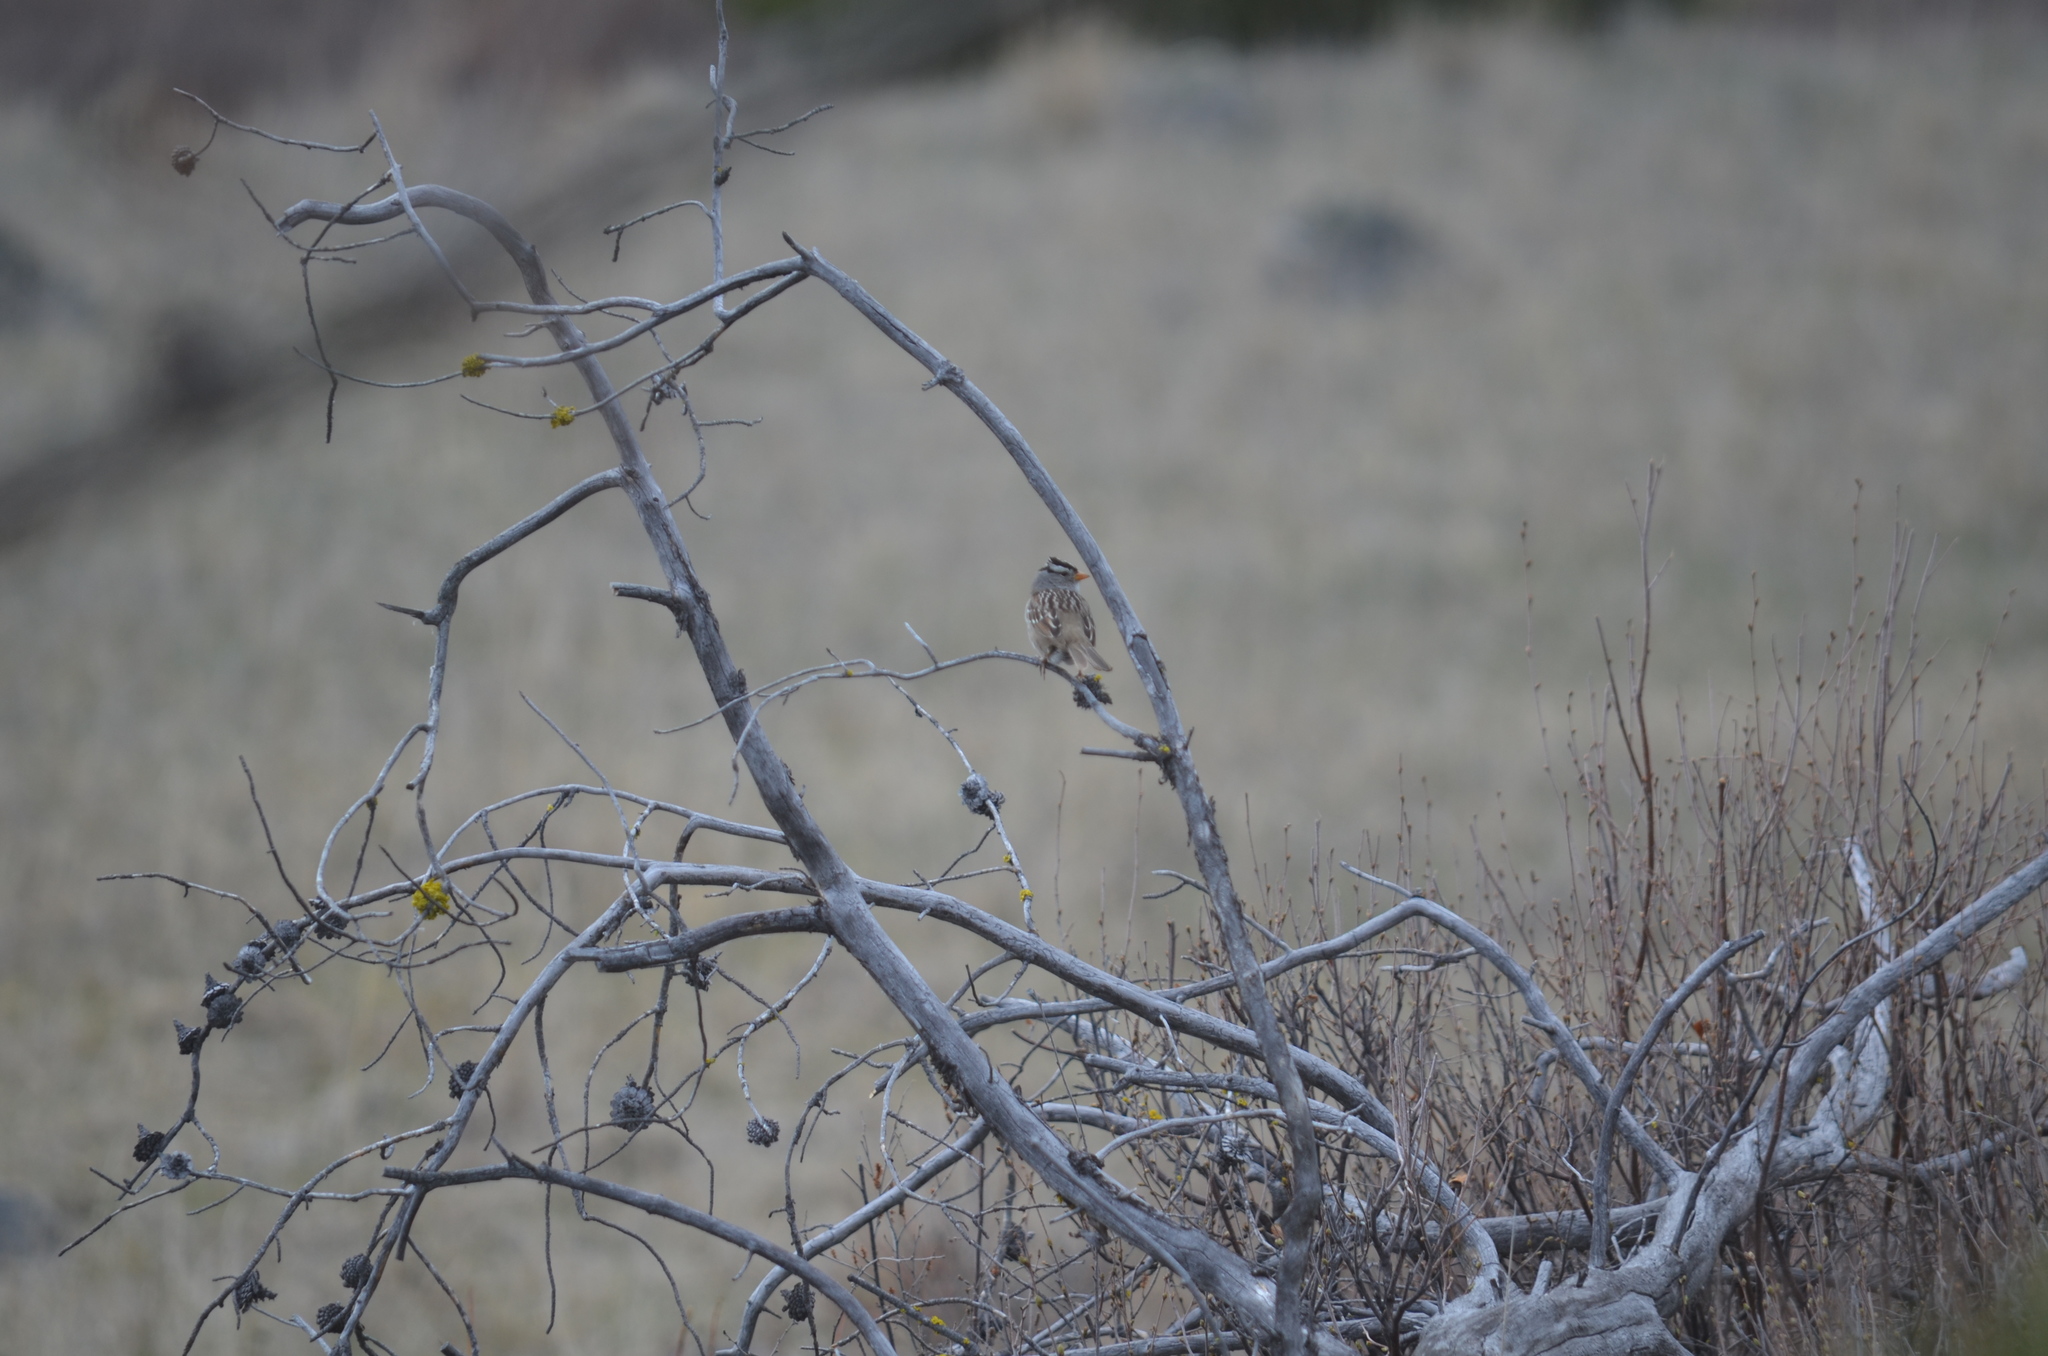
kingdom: Animalia
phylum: Chordata
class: Aves
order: Passeriformes
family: Passerellidae
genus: Zonotrichia
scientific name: Zonotrichia leucophrys
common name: White-crowned sparrow
